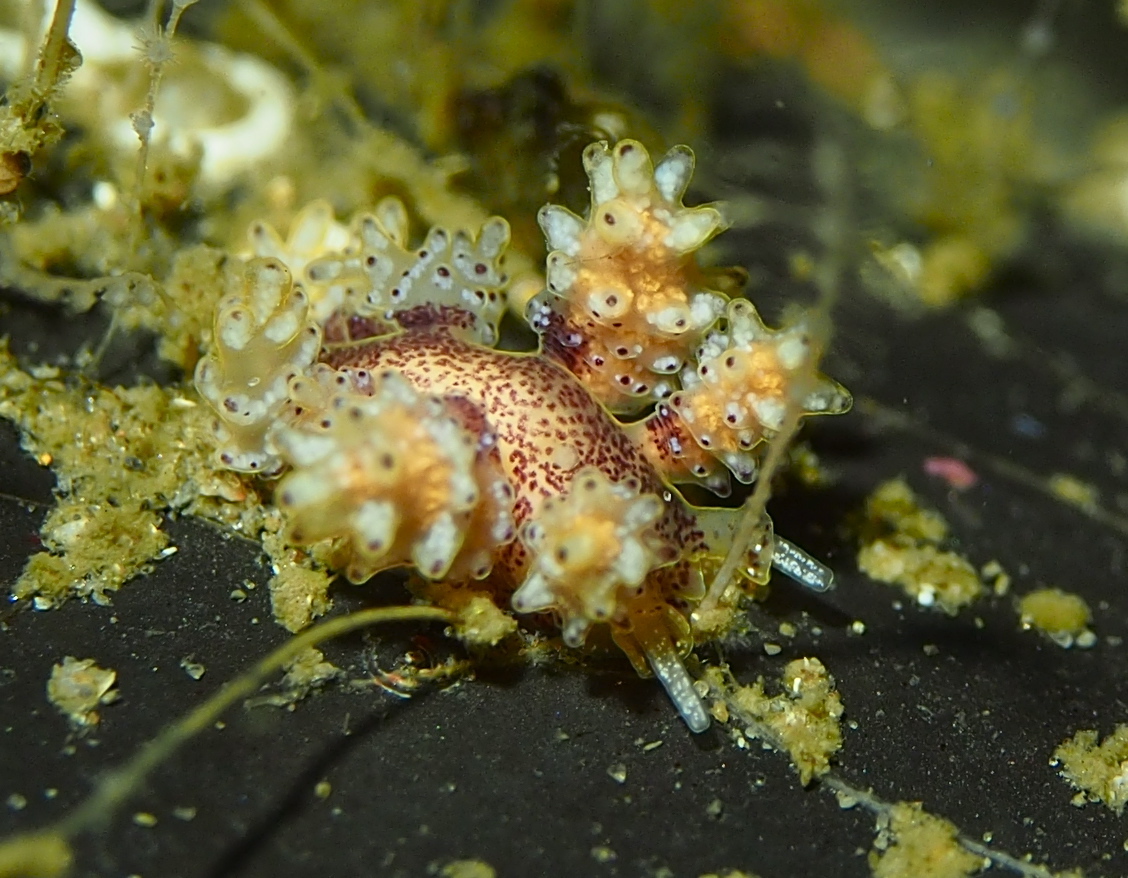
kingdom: Animalia
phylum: Mollusca
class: Gastropoda
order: Nudibranchia
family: Dotidae
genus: Doto
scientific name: Doto maculata
